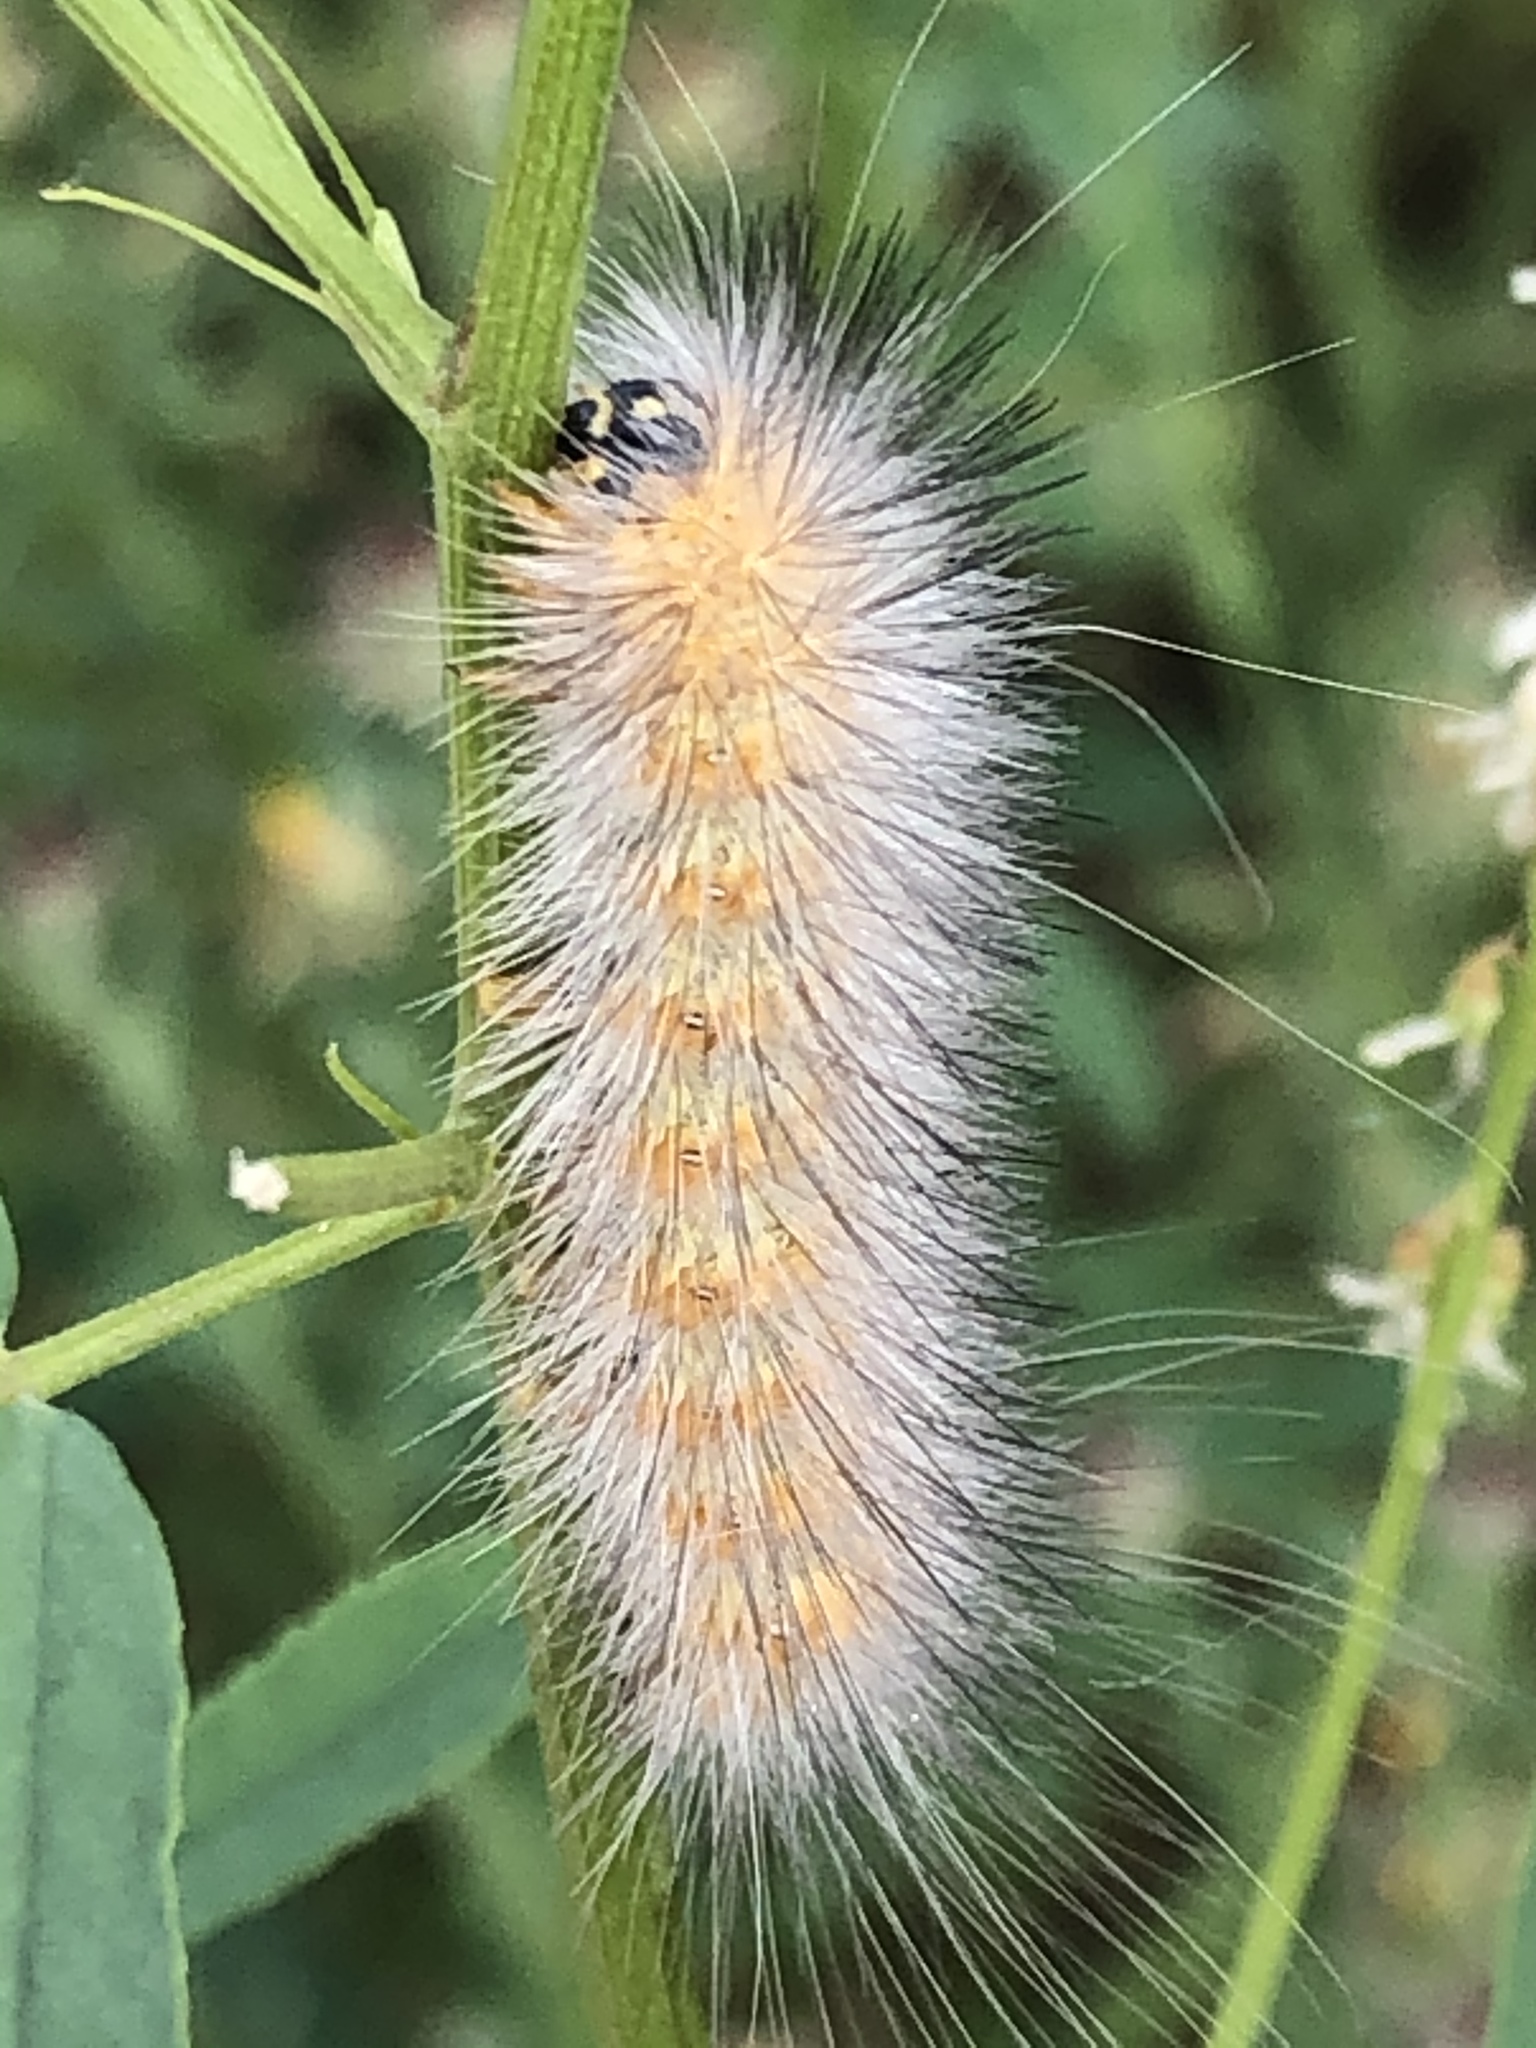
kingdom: Animalia
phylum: Arthropoda
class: Insecta
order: Lepidoptera
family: Erebidae
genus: Estigmene
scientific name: Estigmene acrea
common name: Salt marsh moth
